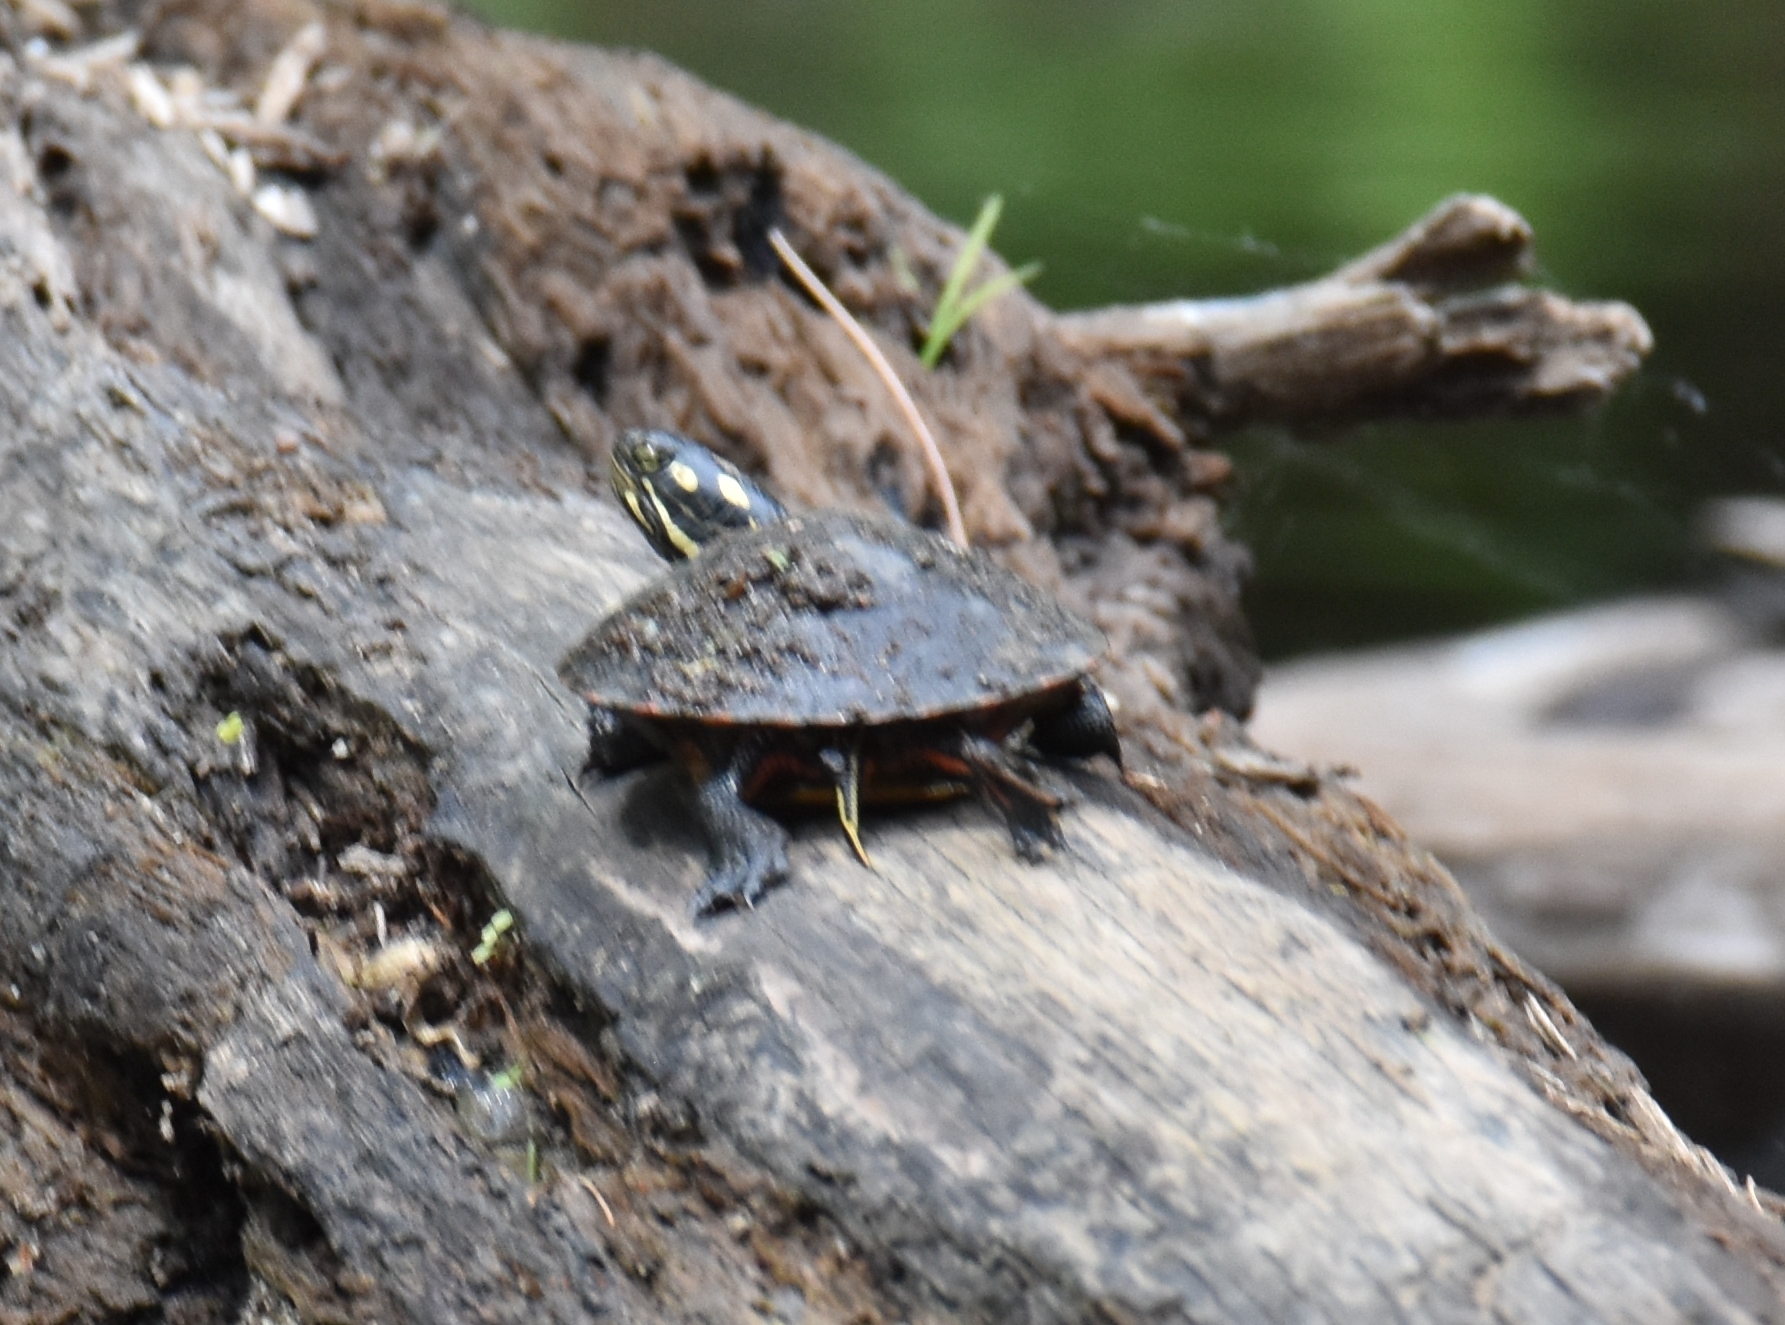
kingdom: Animalia
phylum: Chordata
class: Testudines
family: Emydidae
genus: Chrysemys
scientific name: Chrysemys picta
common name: Painted turtle
